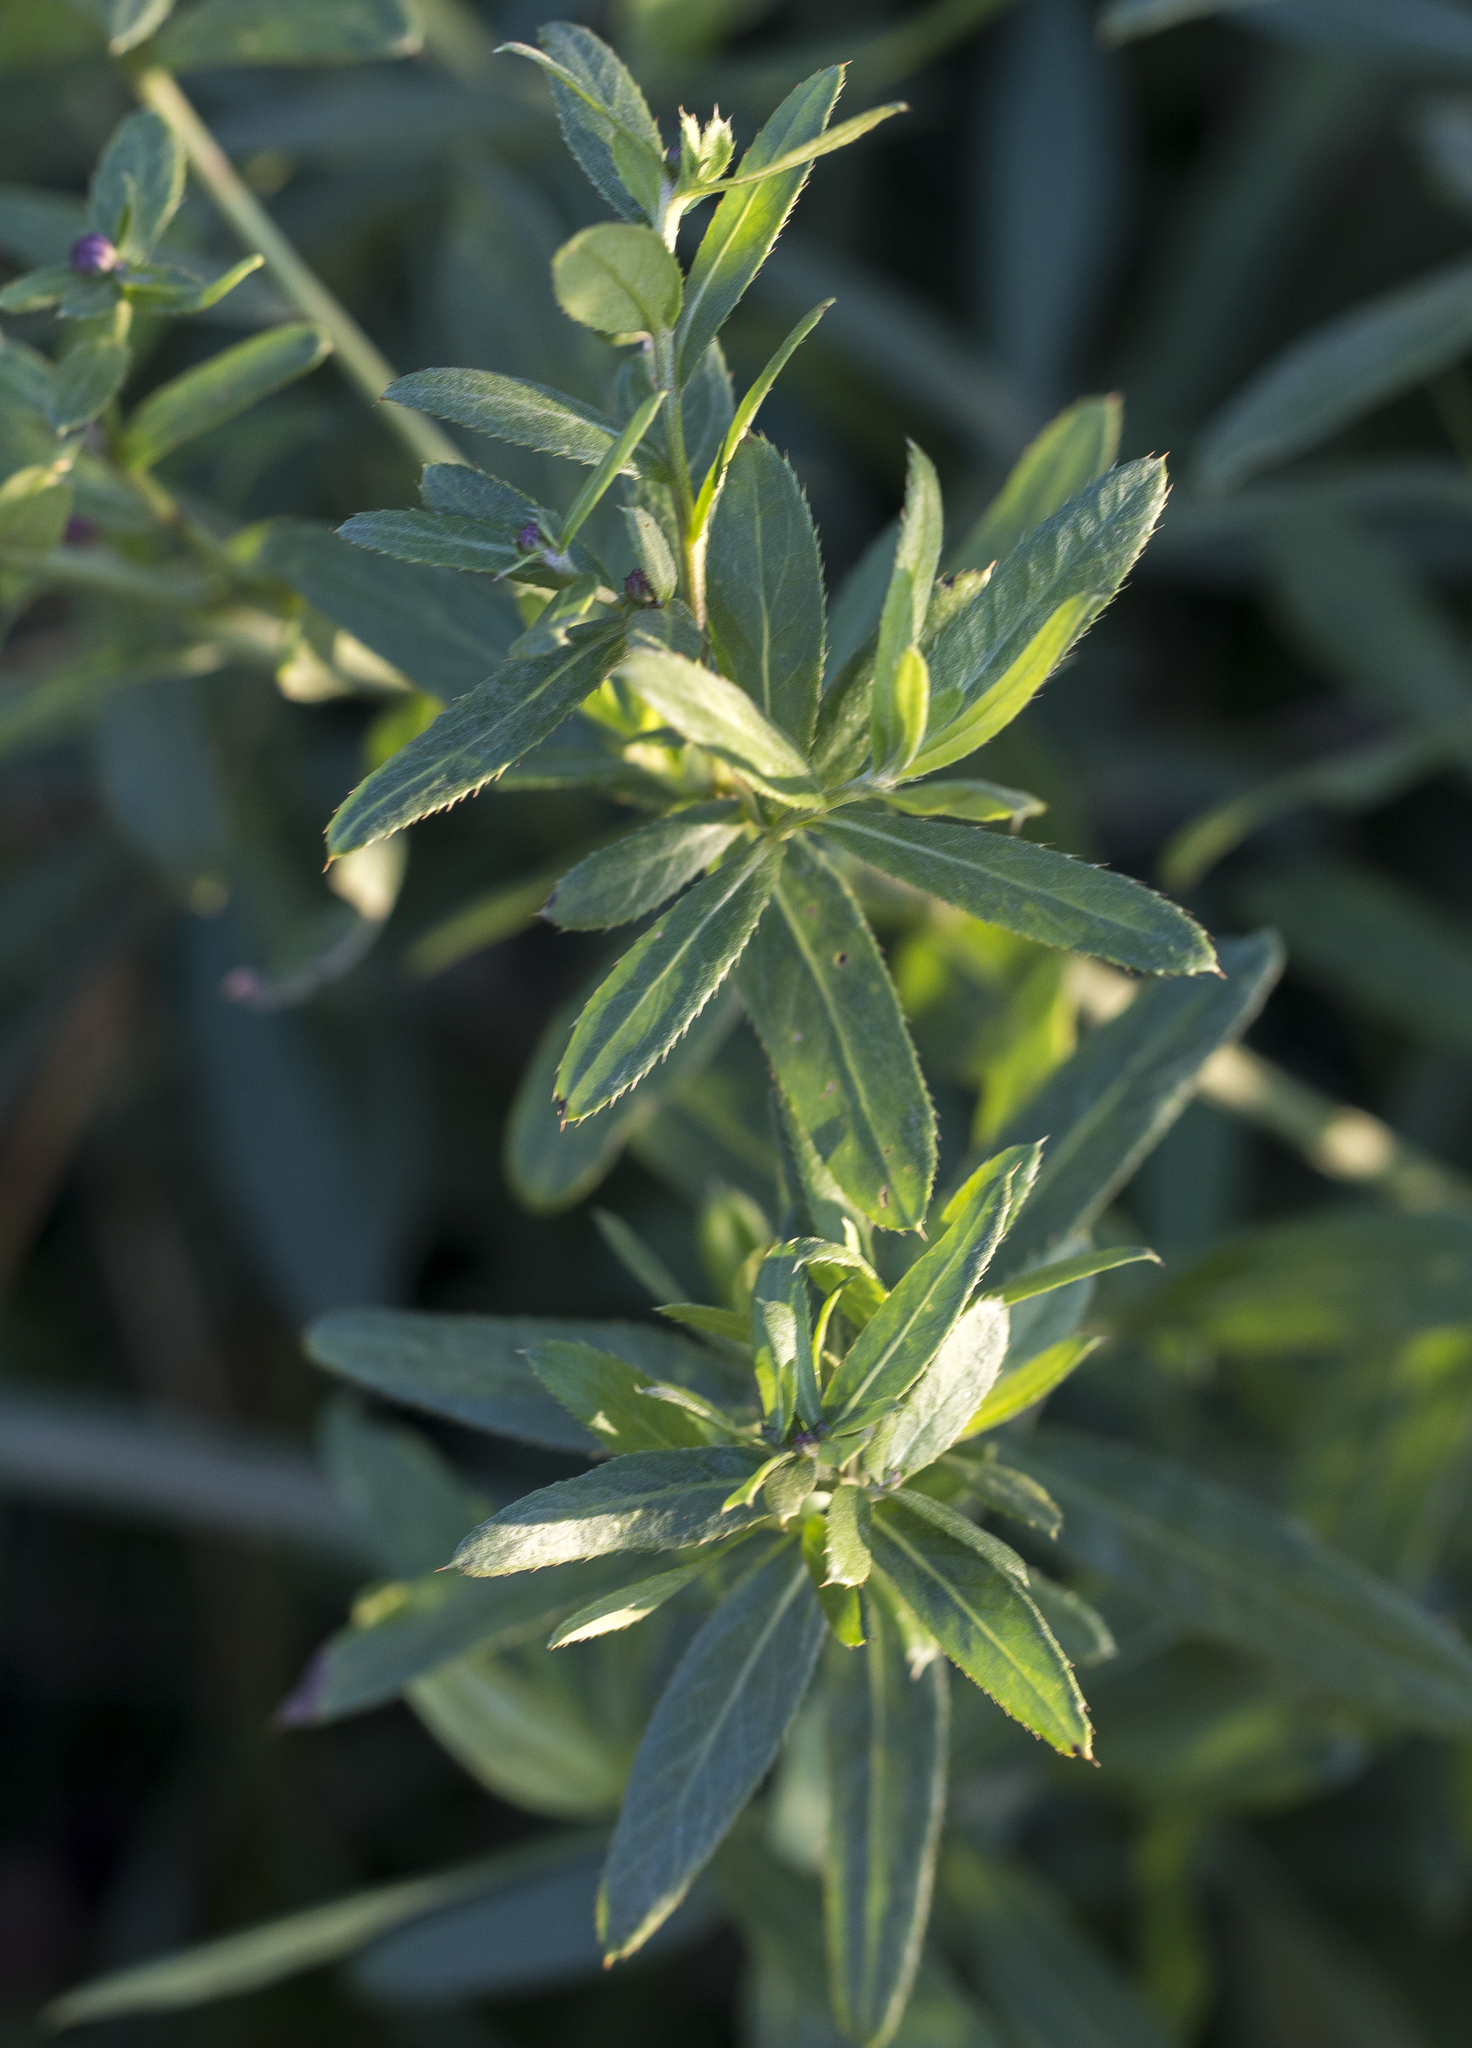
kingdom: Plantae
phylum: Tracheophyta
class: Magnoliopsida
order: Asterales
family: Asteraceae
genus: Cirsium
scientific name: Cirsium arvense
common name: Creeping thistle
